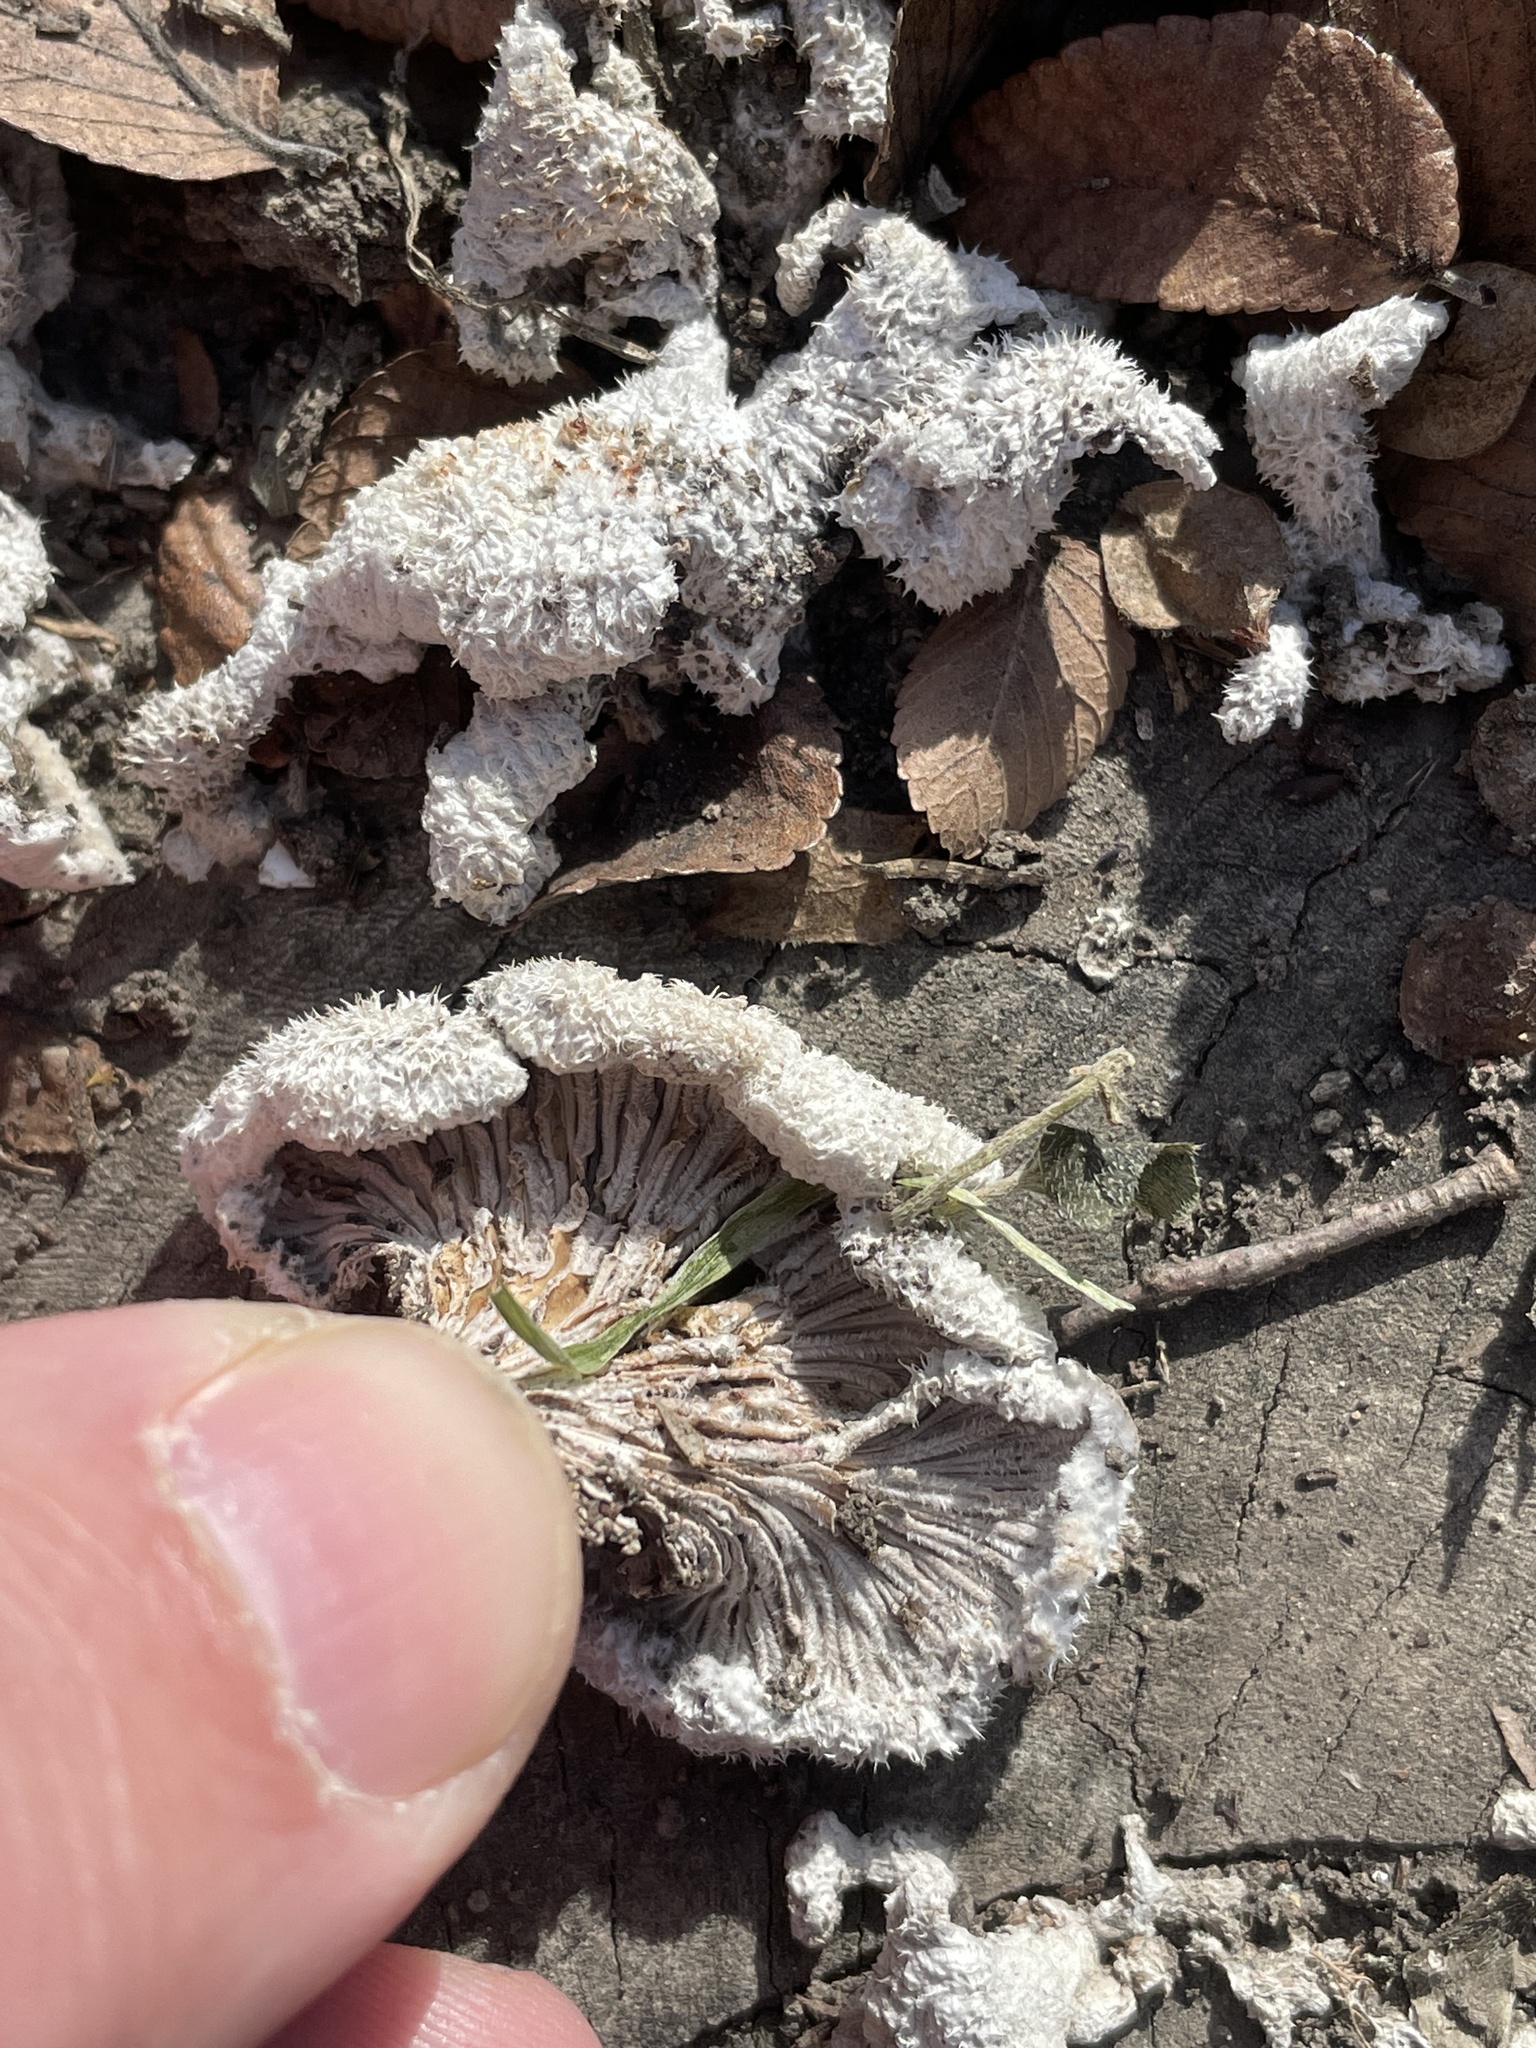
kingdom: Fungi
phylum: Basidiomycota
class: Agaricomycetes
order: Agaricales
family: Schizophyllaceae
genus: Schizophyllum
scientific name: Schizophyllum commune
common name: Common porecrust
